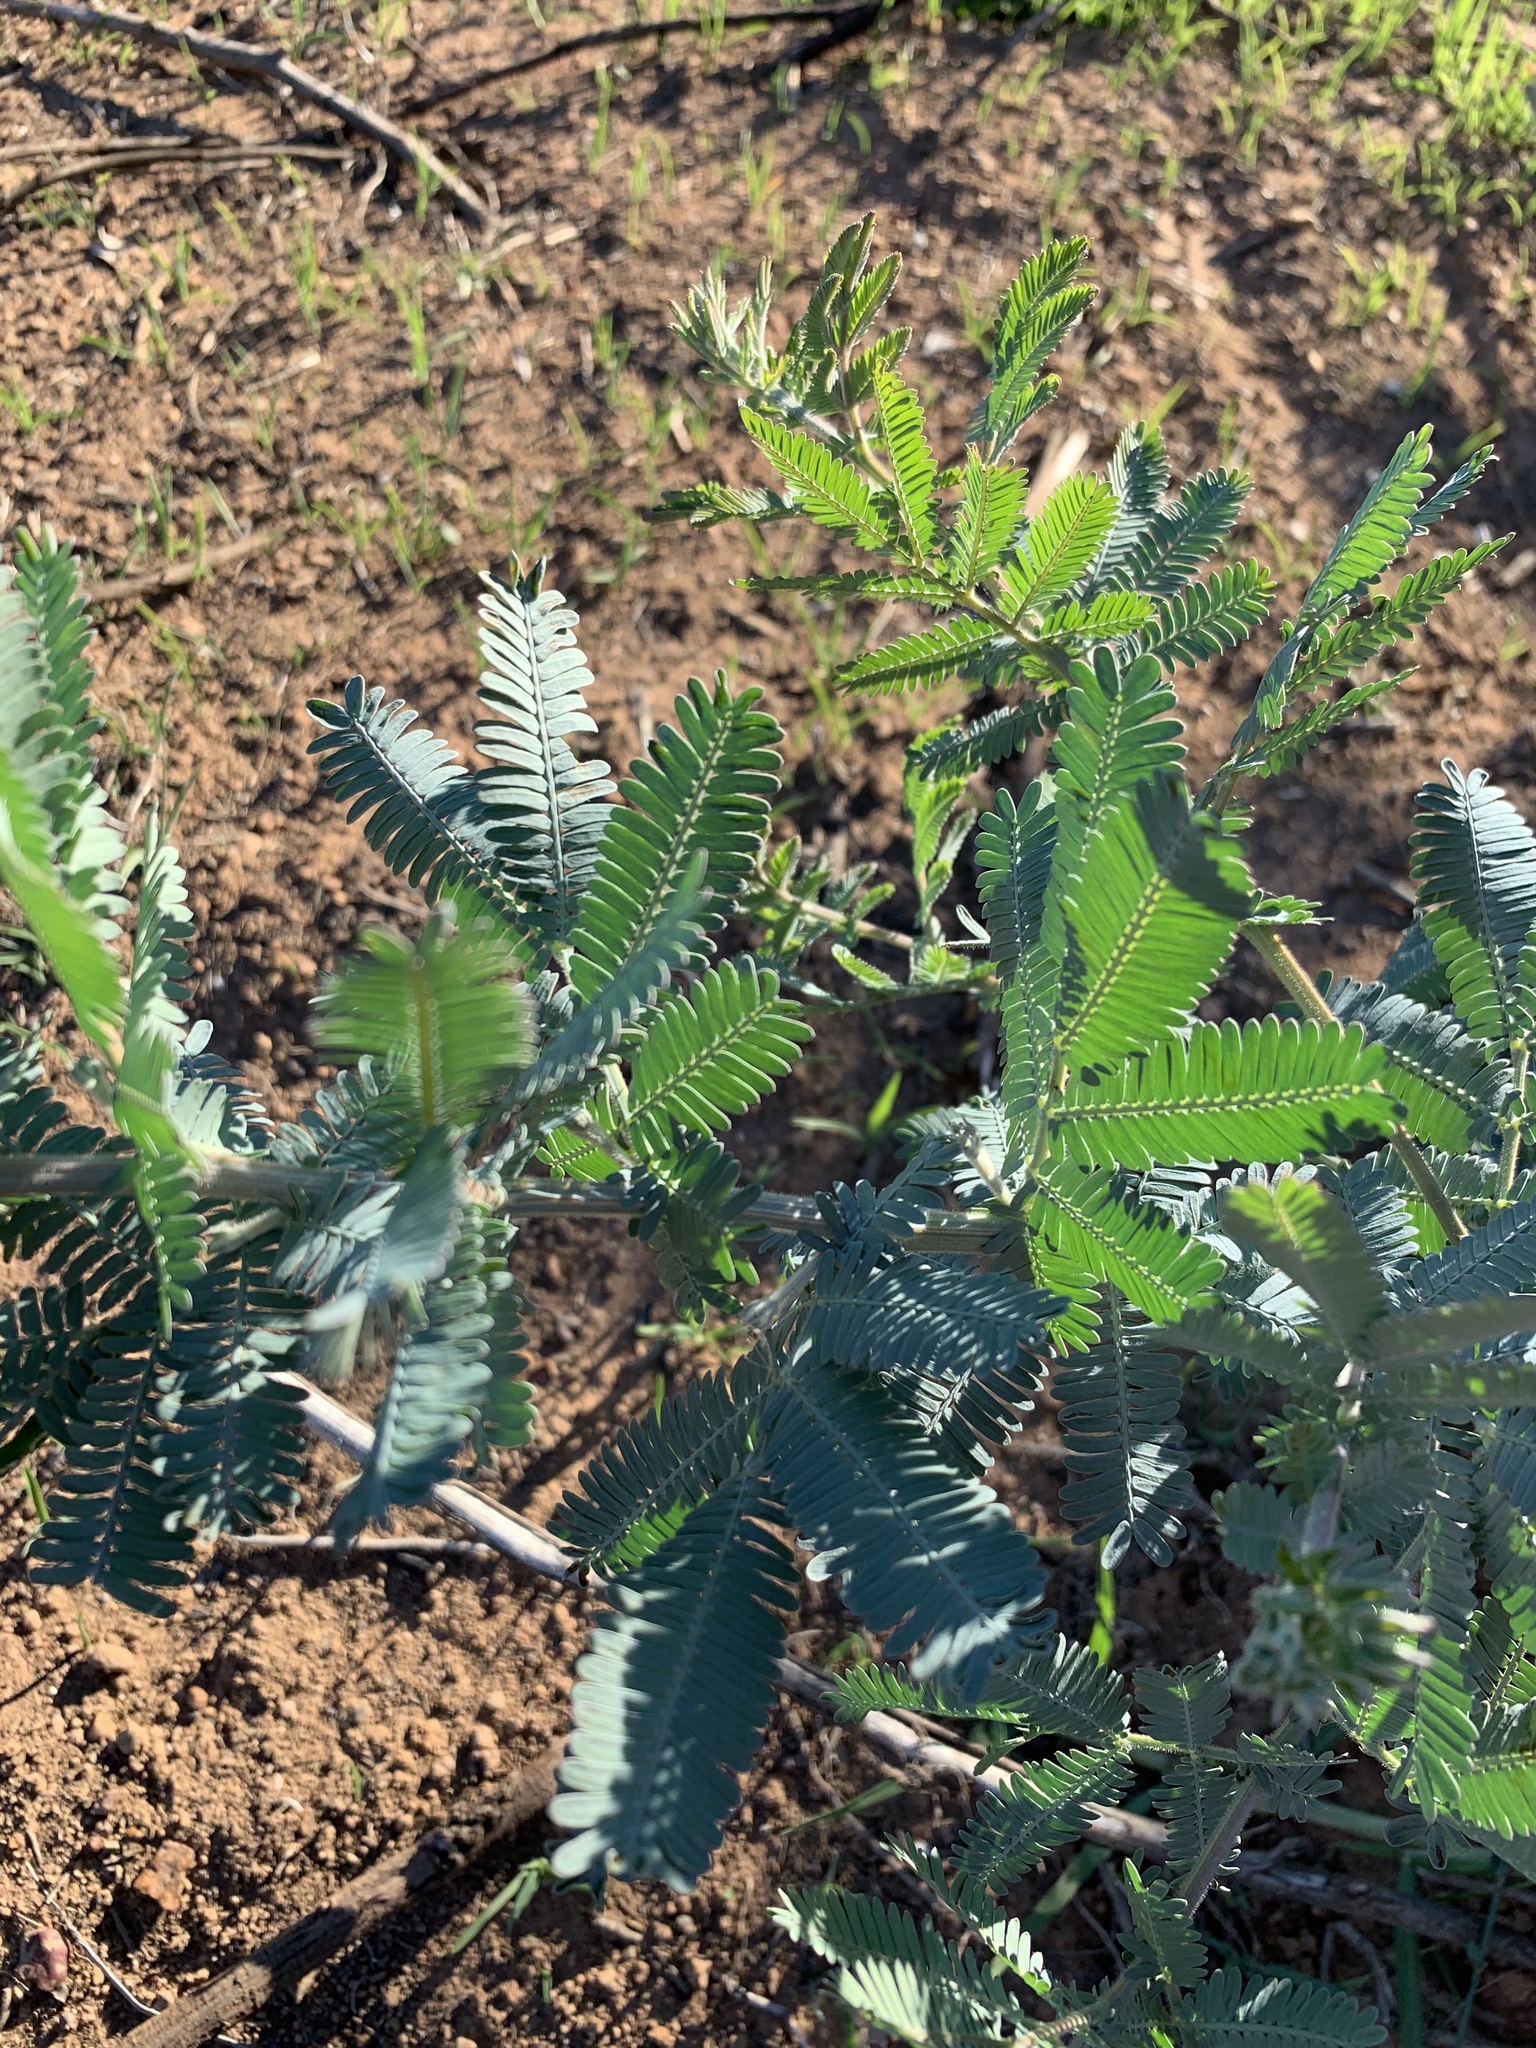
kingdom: Plantae
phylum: Tracheophyta
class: Magnoliopsida
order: Fabales
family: Fabaceae
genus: Acacia
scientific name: Acacia baileyana
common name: Cootamundra wattle
